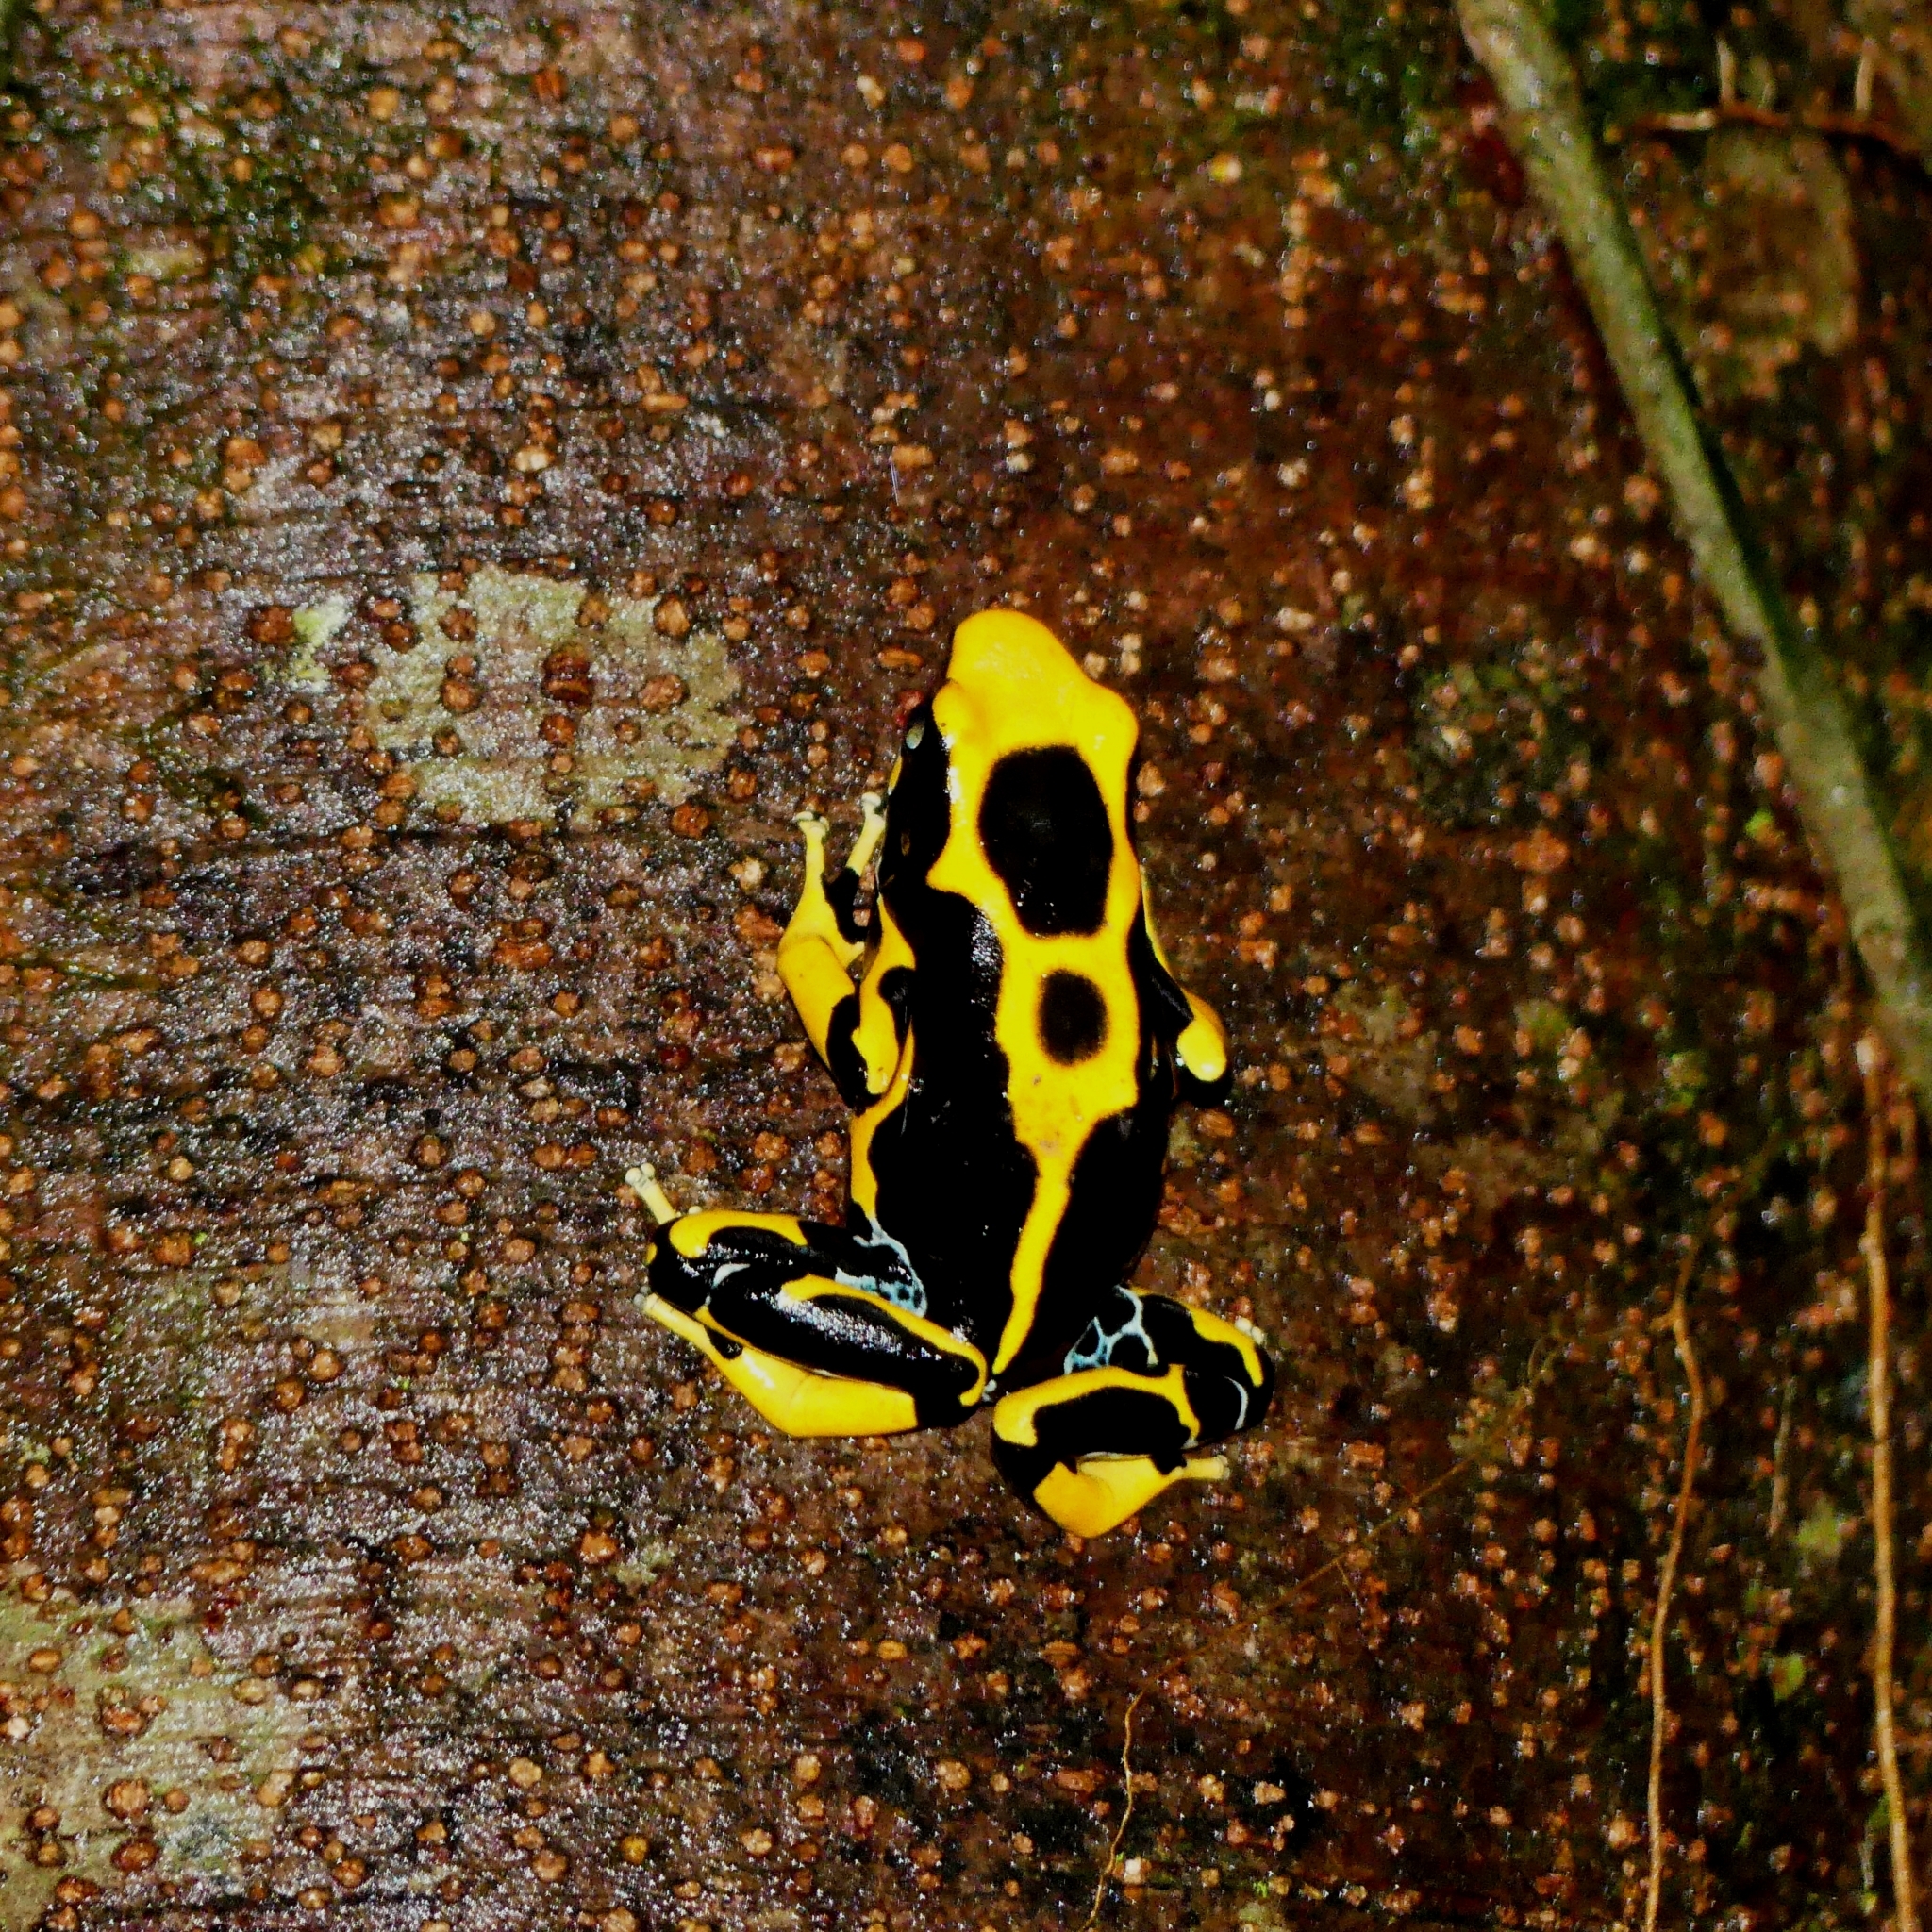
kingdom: Animalia
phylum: Chordata
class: Amphibia
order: Anura
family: Dendrobatidae
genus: Dendrobates
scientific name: Dendrobates tinctorius
